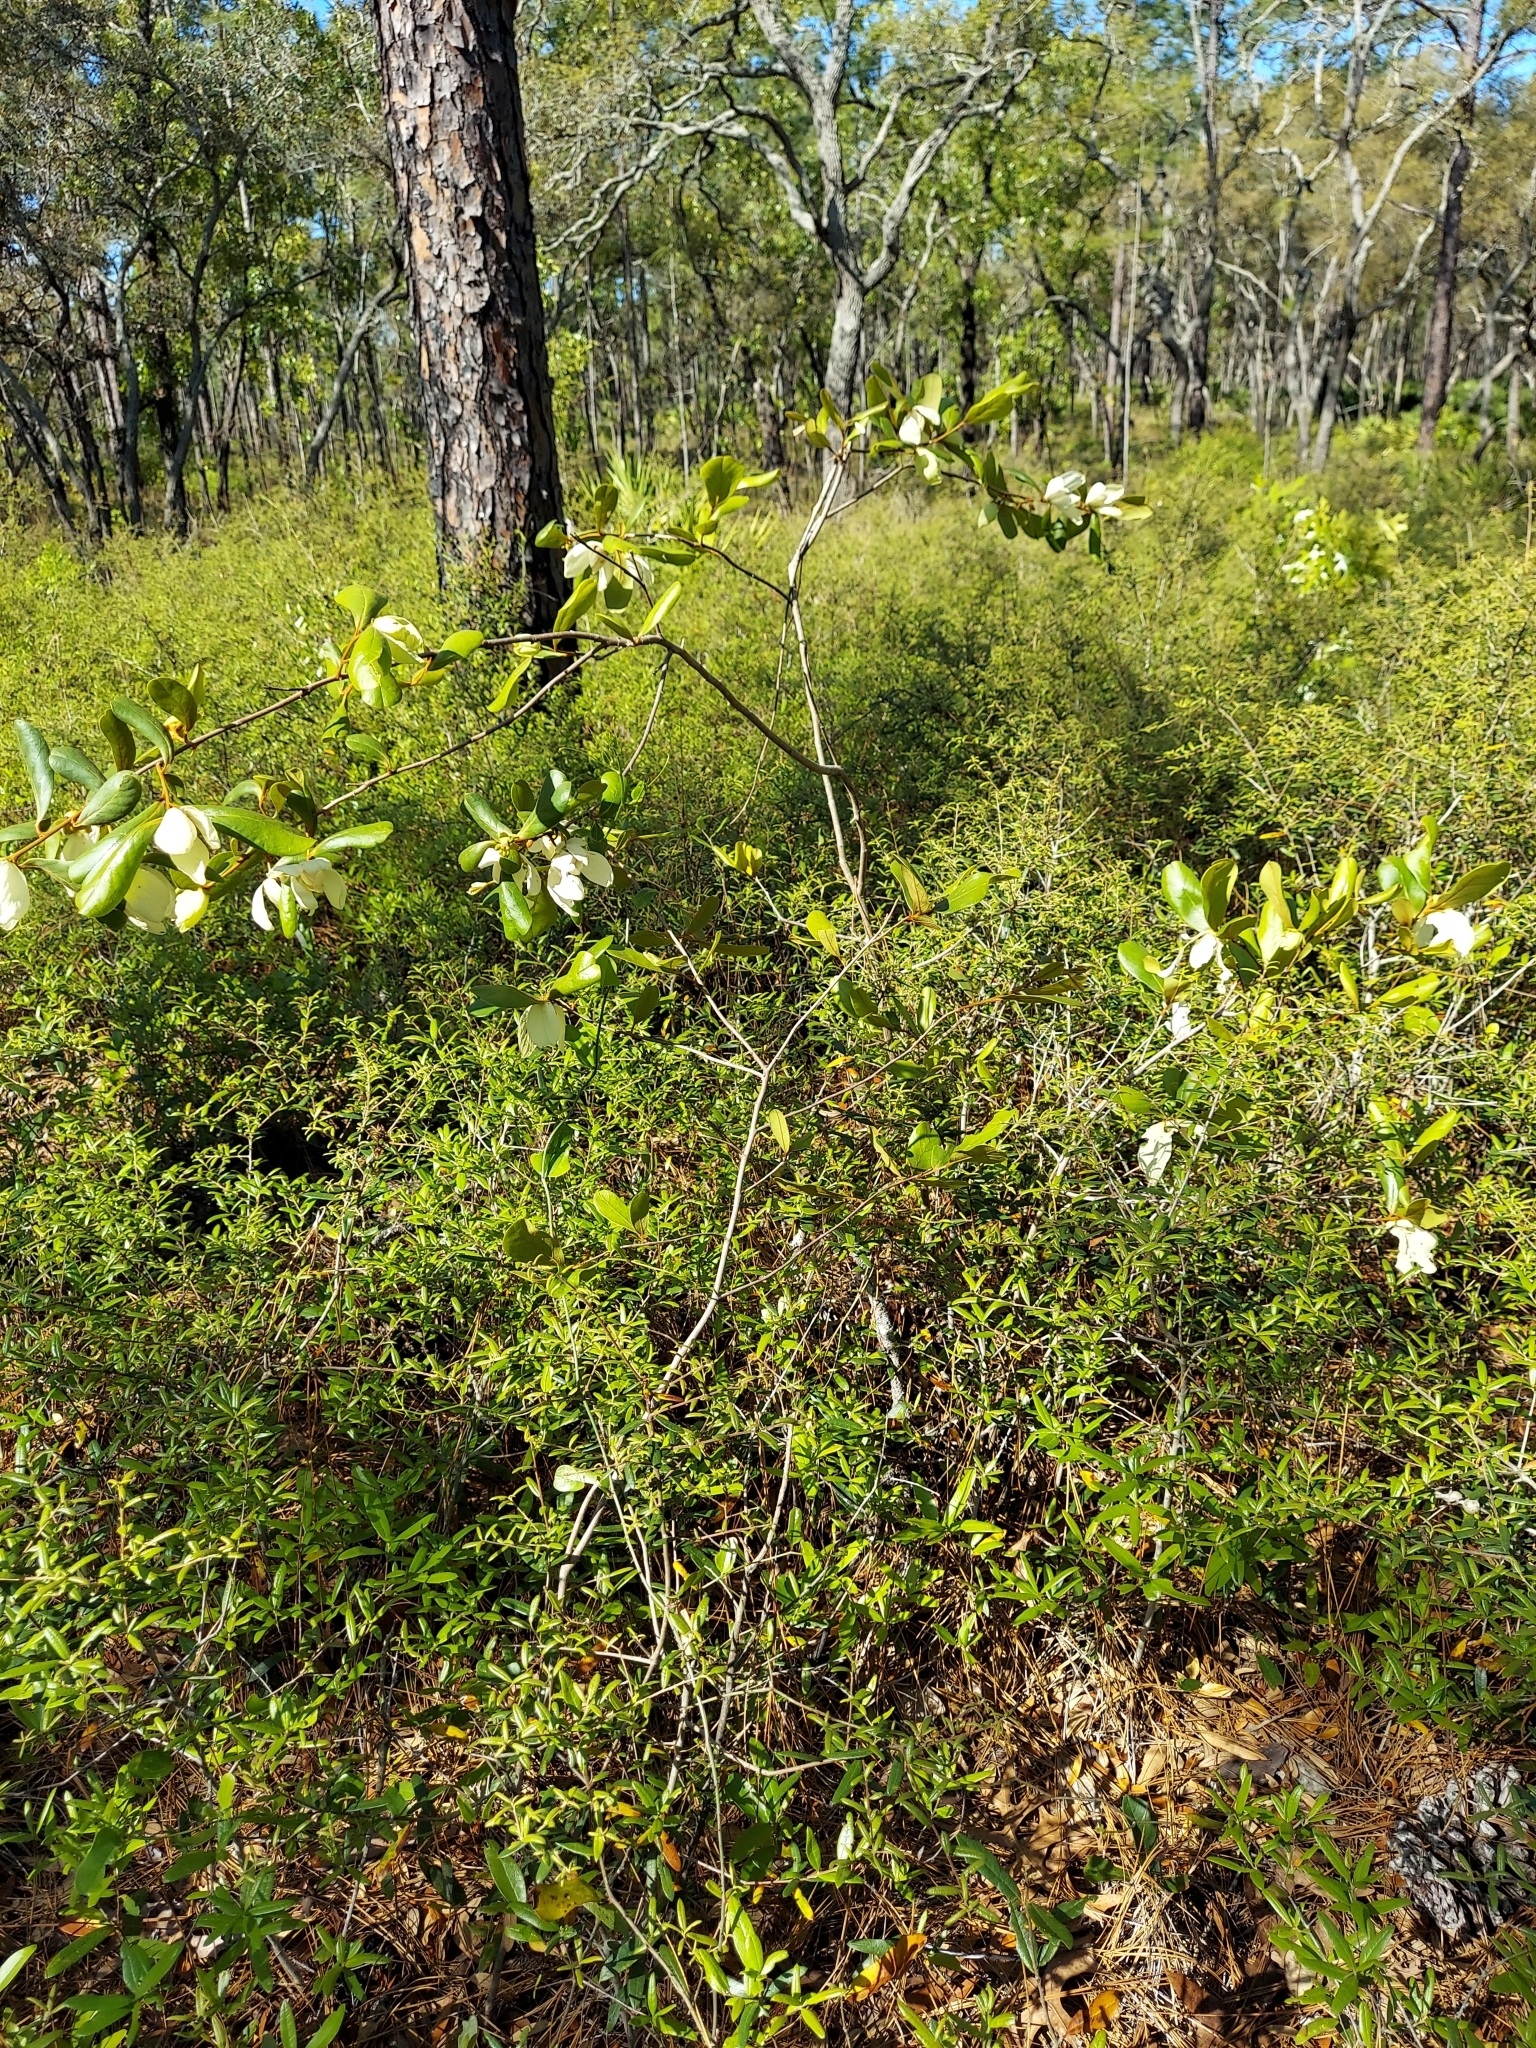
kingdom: Plantae
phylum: Tracheophyta
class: Magnoliopsida
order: Magnoliales
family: Annonaceae
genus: Asimina
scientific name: Asimina obovata
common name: Flag pawpaw
